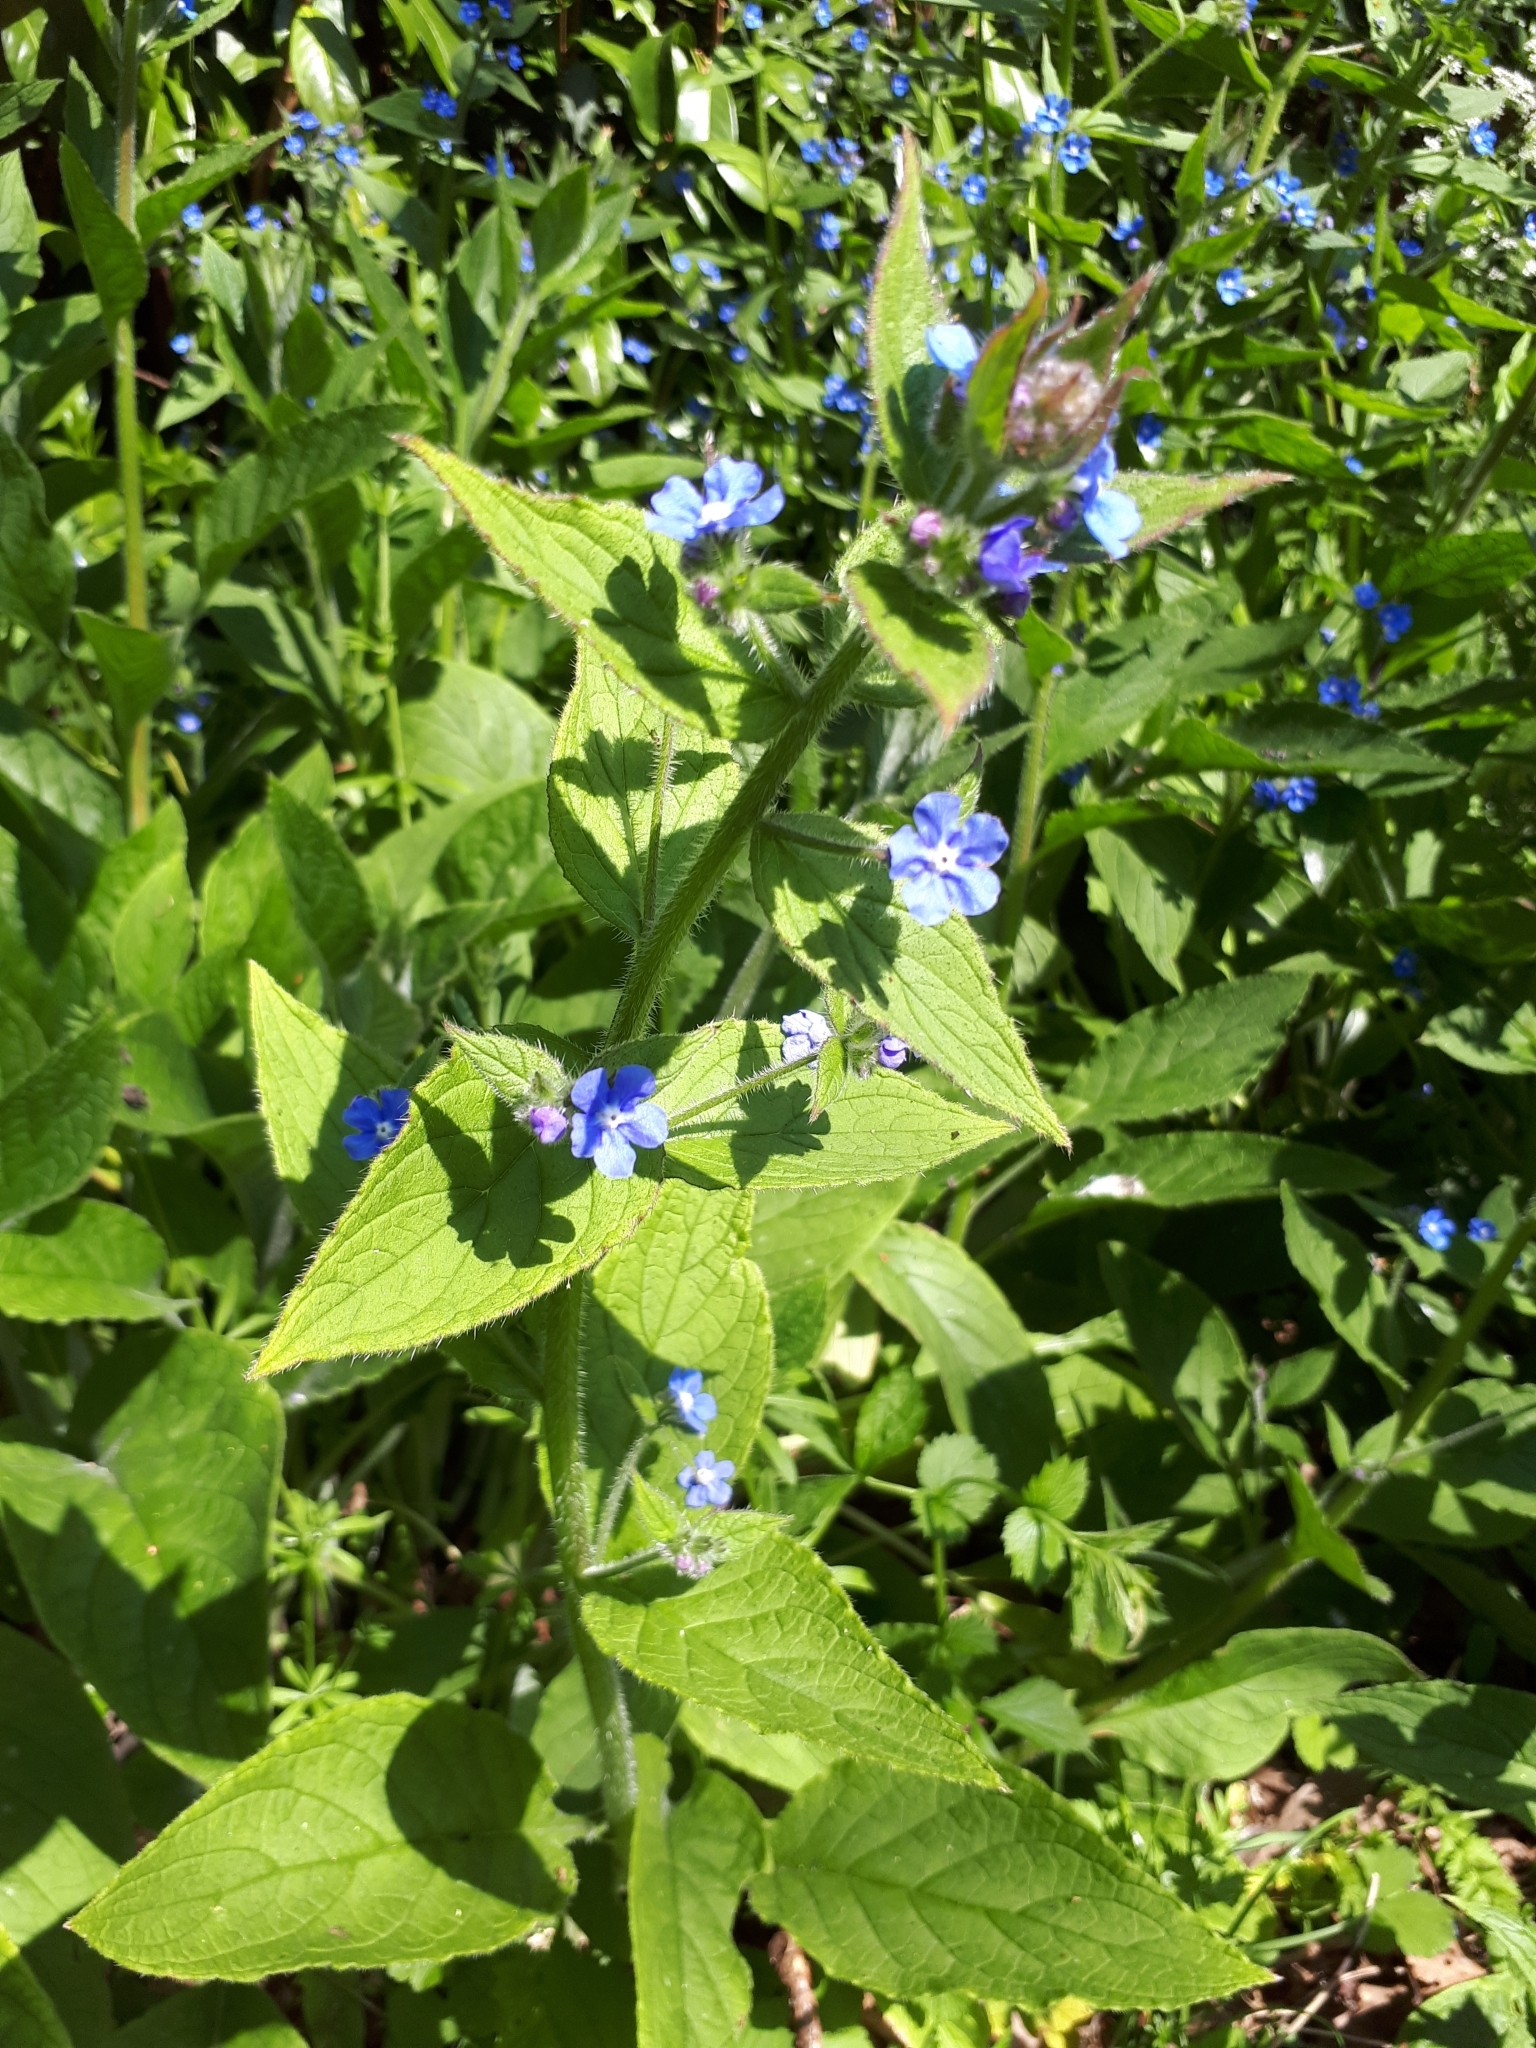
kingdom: Plantae
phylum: Tracheophyta
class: Magnoliopsida
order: Boraginales
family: Boraginaceae
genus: Pentaglottis
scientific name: Pentaglottis sempervirens
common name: Green alkanet
